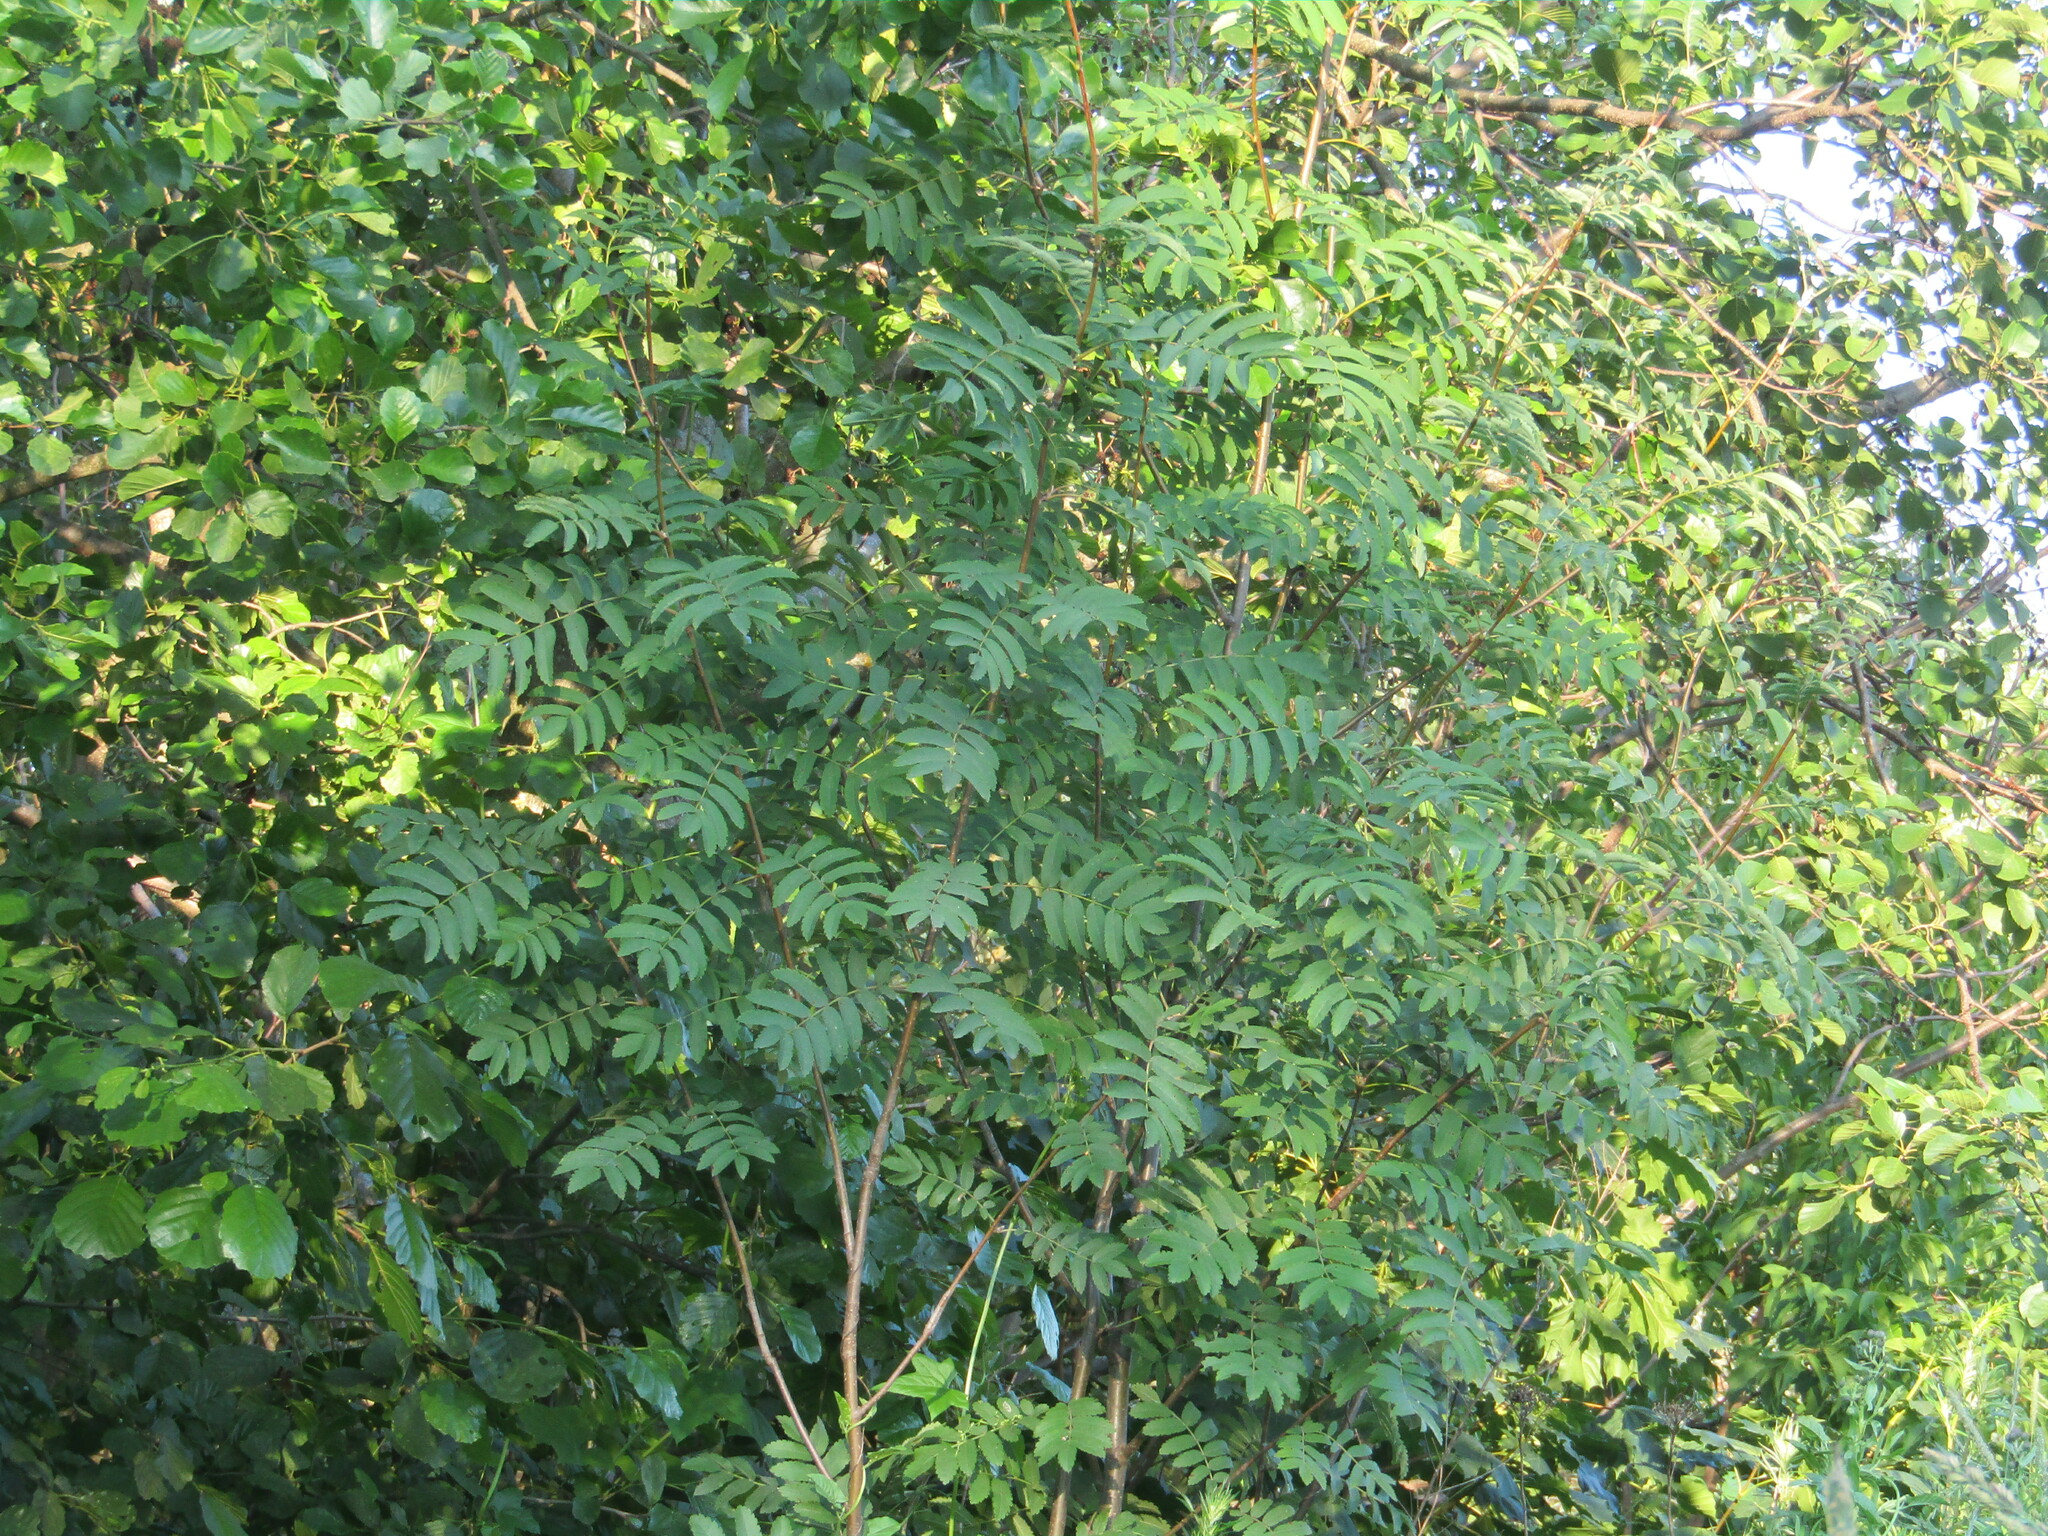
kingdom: Plantae
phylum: Tracheophyta
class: Magnoliopsida
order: Rosales
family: Rosaceae
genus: Sorbus
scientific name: Sorbus aucuparia
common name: Rowan
